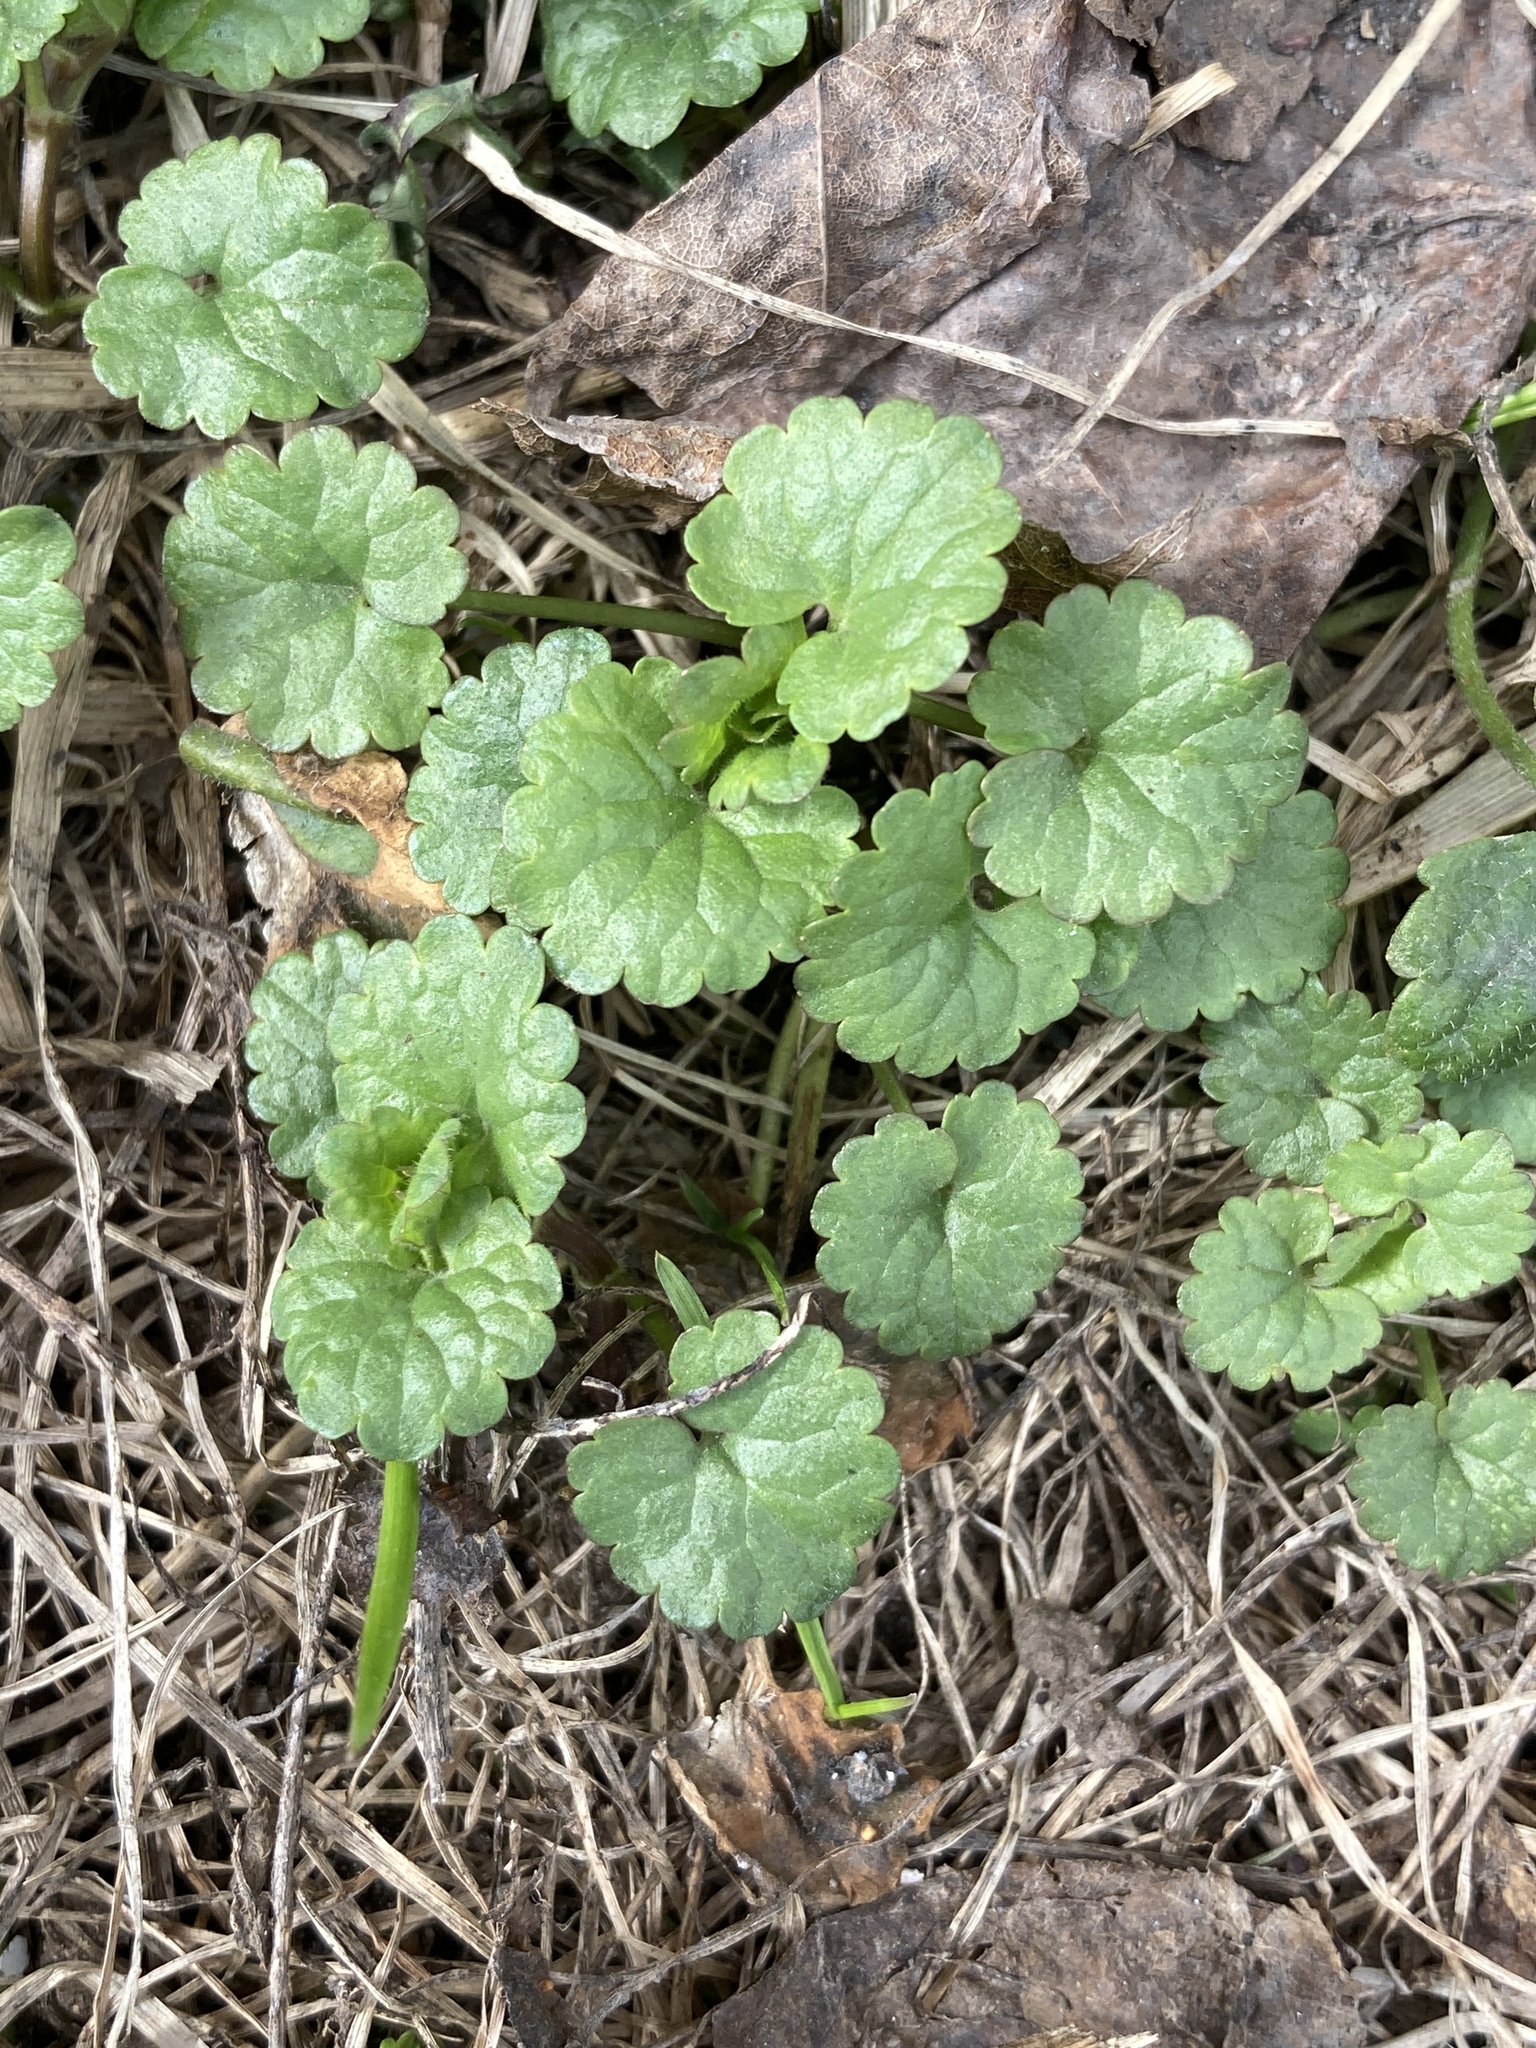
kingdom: Plantae
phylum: Tracheophyta
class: Magnoliopsida
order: Lamiales
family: Lamiaceae
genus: Glechoma
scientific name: Glechoma hederacea
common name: Ground ivy
